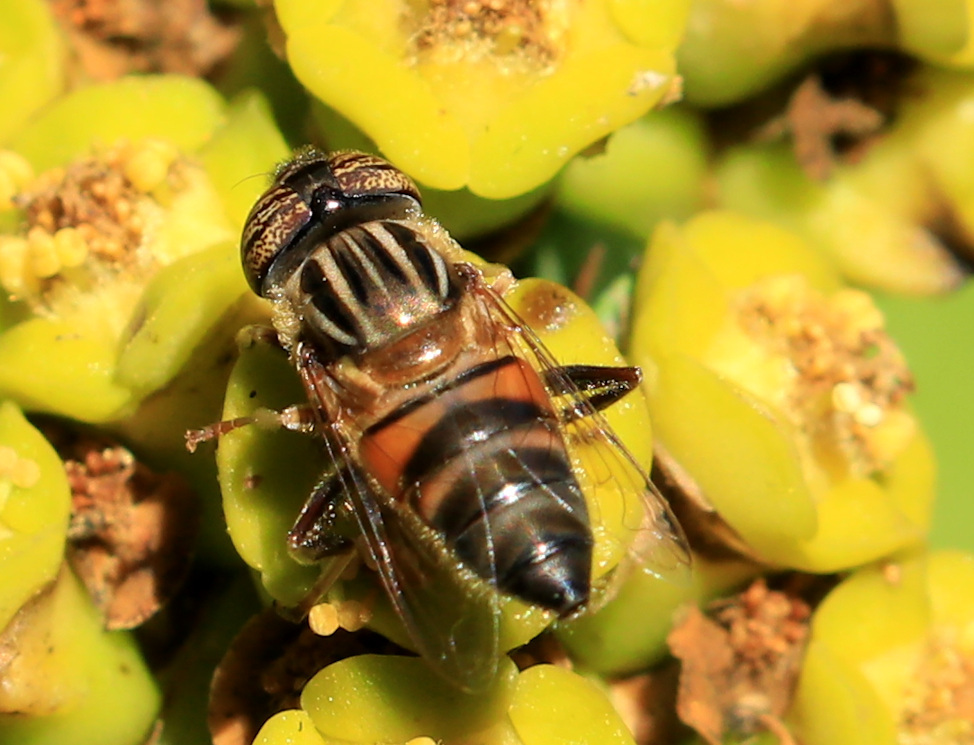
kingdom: Animalia
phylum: Arthropoda
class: Insecta
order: Diptera
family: Syrphidae
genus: Eristalinus
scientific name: Eristalinus quinquelineatus
